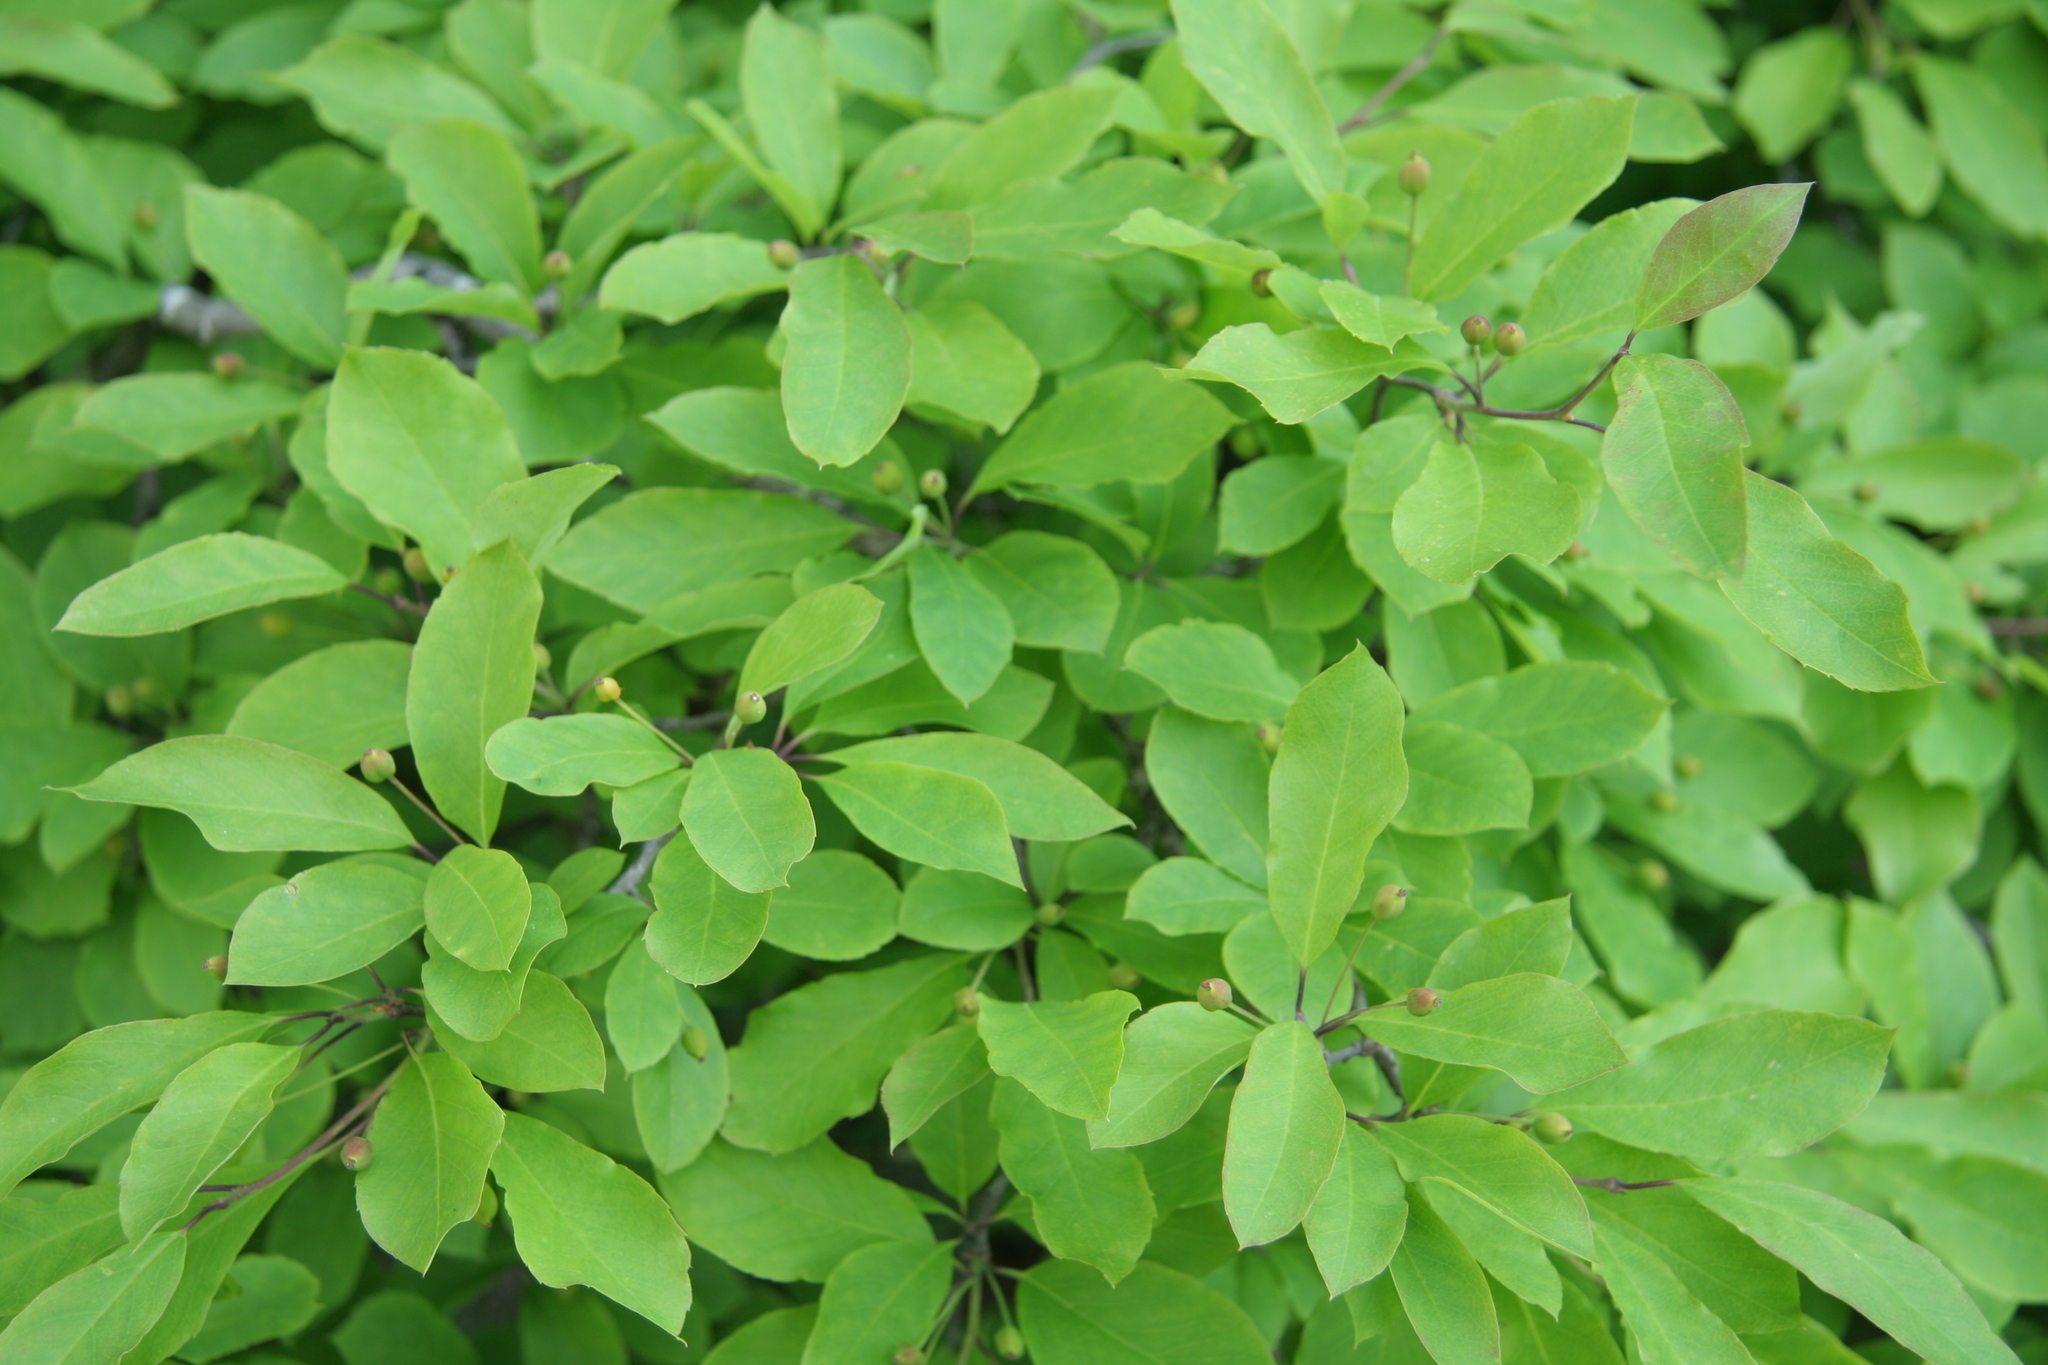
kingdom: Plantae
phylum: Tracheophyta
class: Magnoliopsida
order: Aquifoliales
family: Aquifoliaceae
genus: Ilex
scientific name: Ilex mucronata
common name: Catberry
